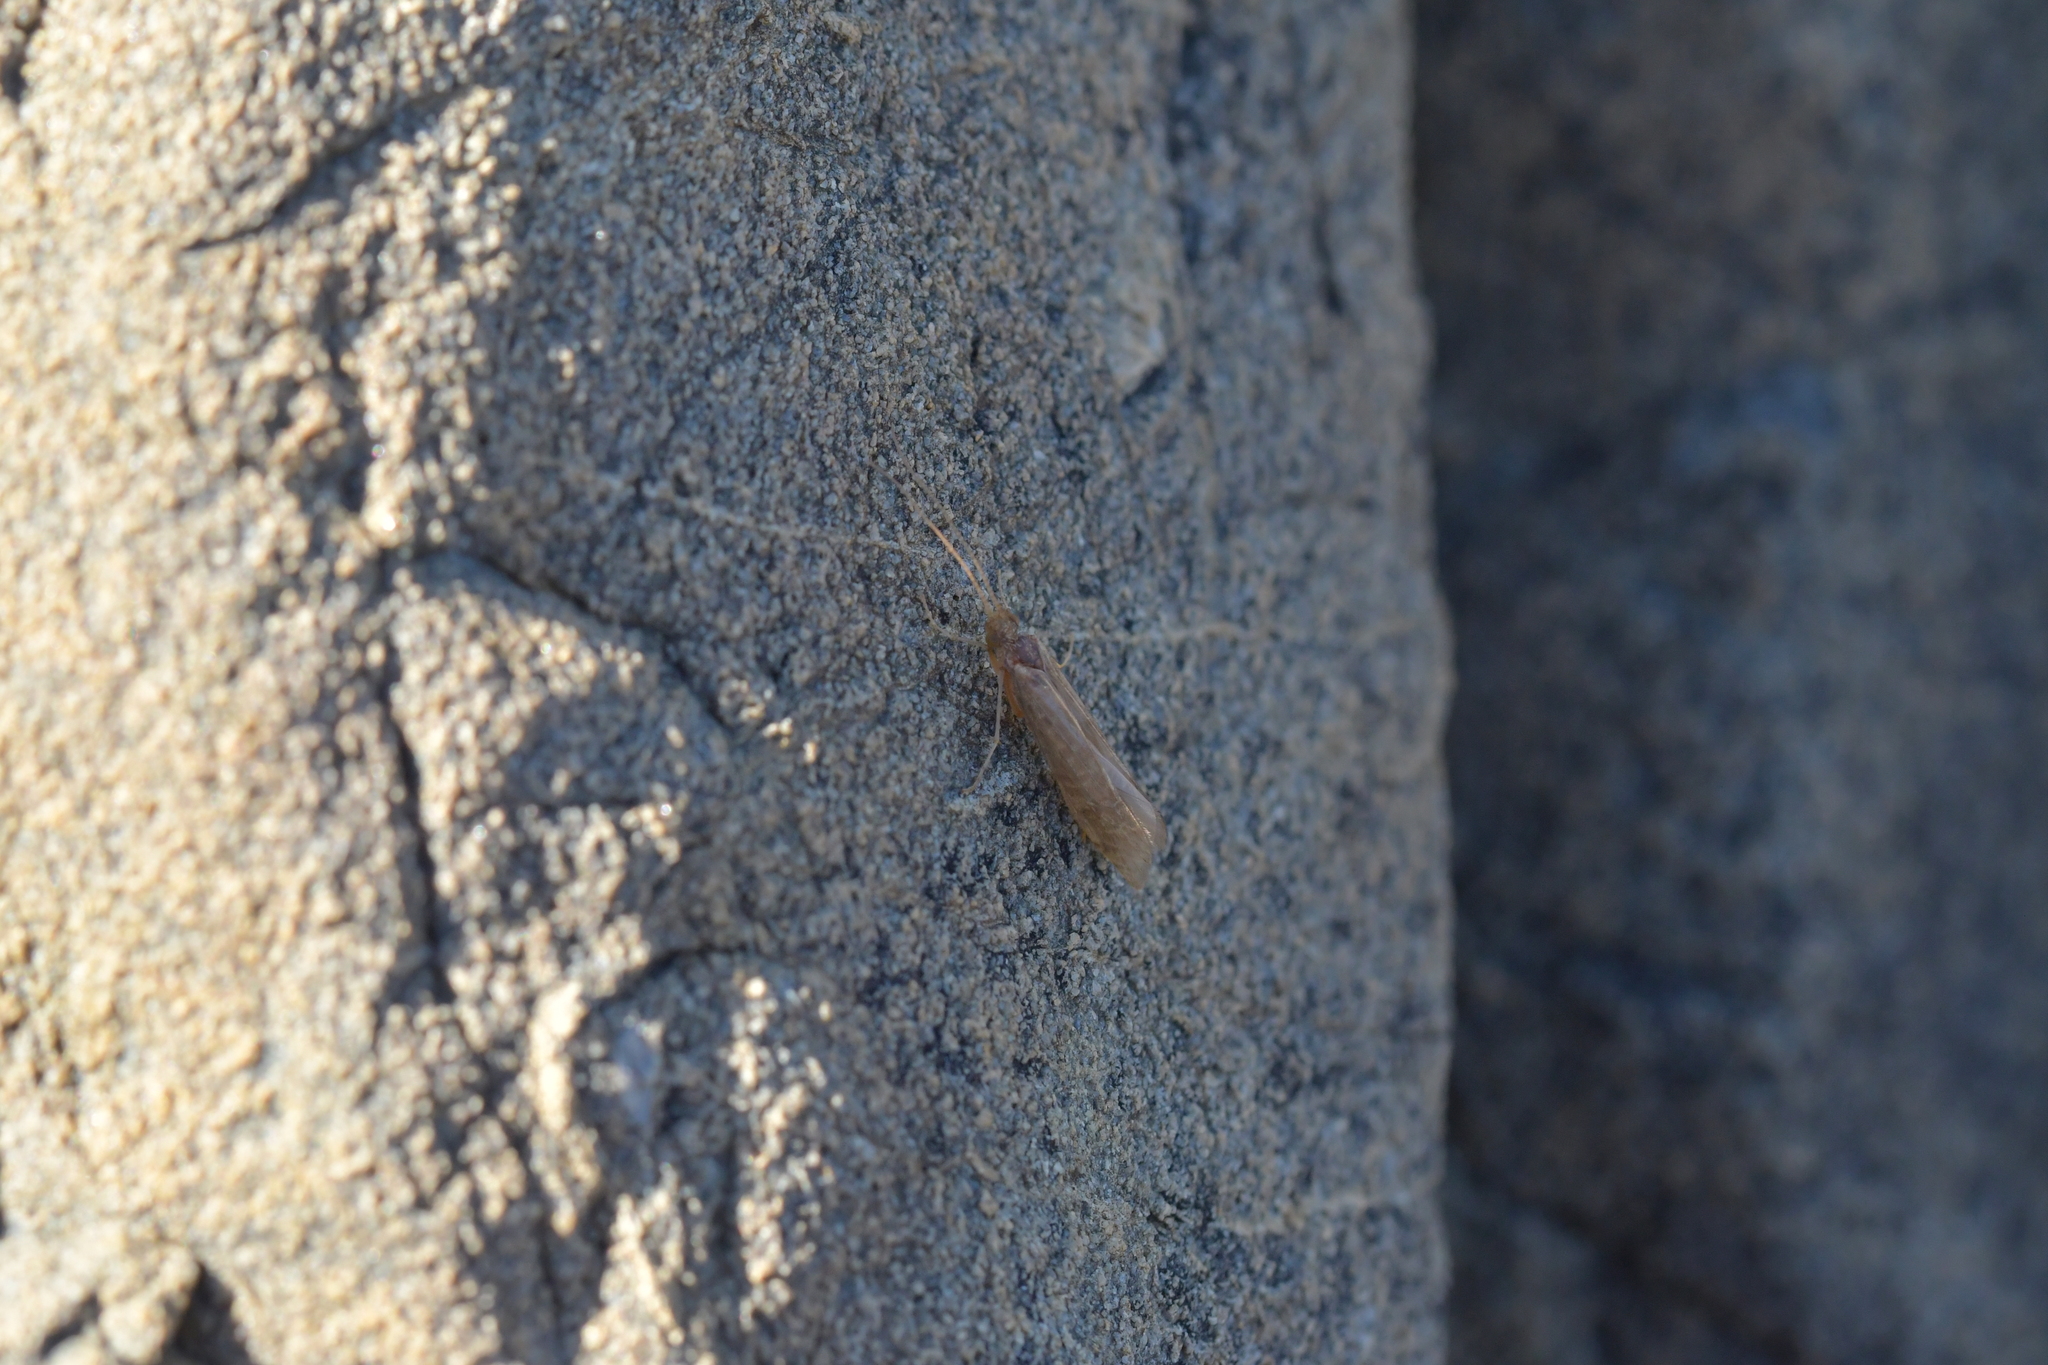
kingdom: Animalia
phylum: Arthropoda
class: Insecta
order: Trichoptera
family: Chathamiidae
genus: Philanisus
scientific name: Philanisus plebeius
